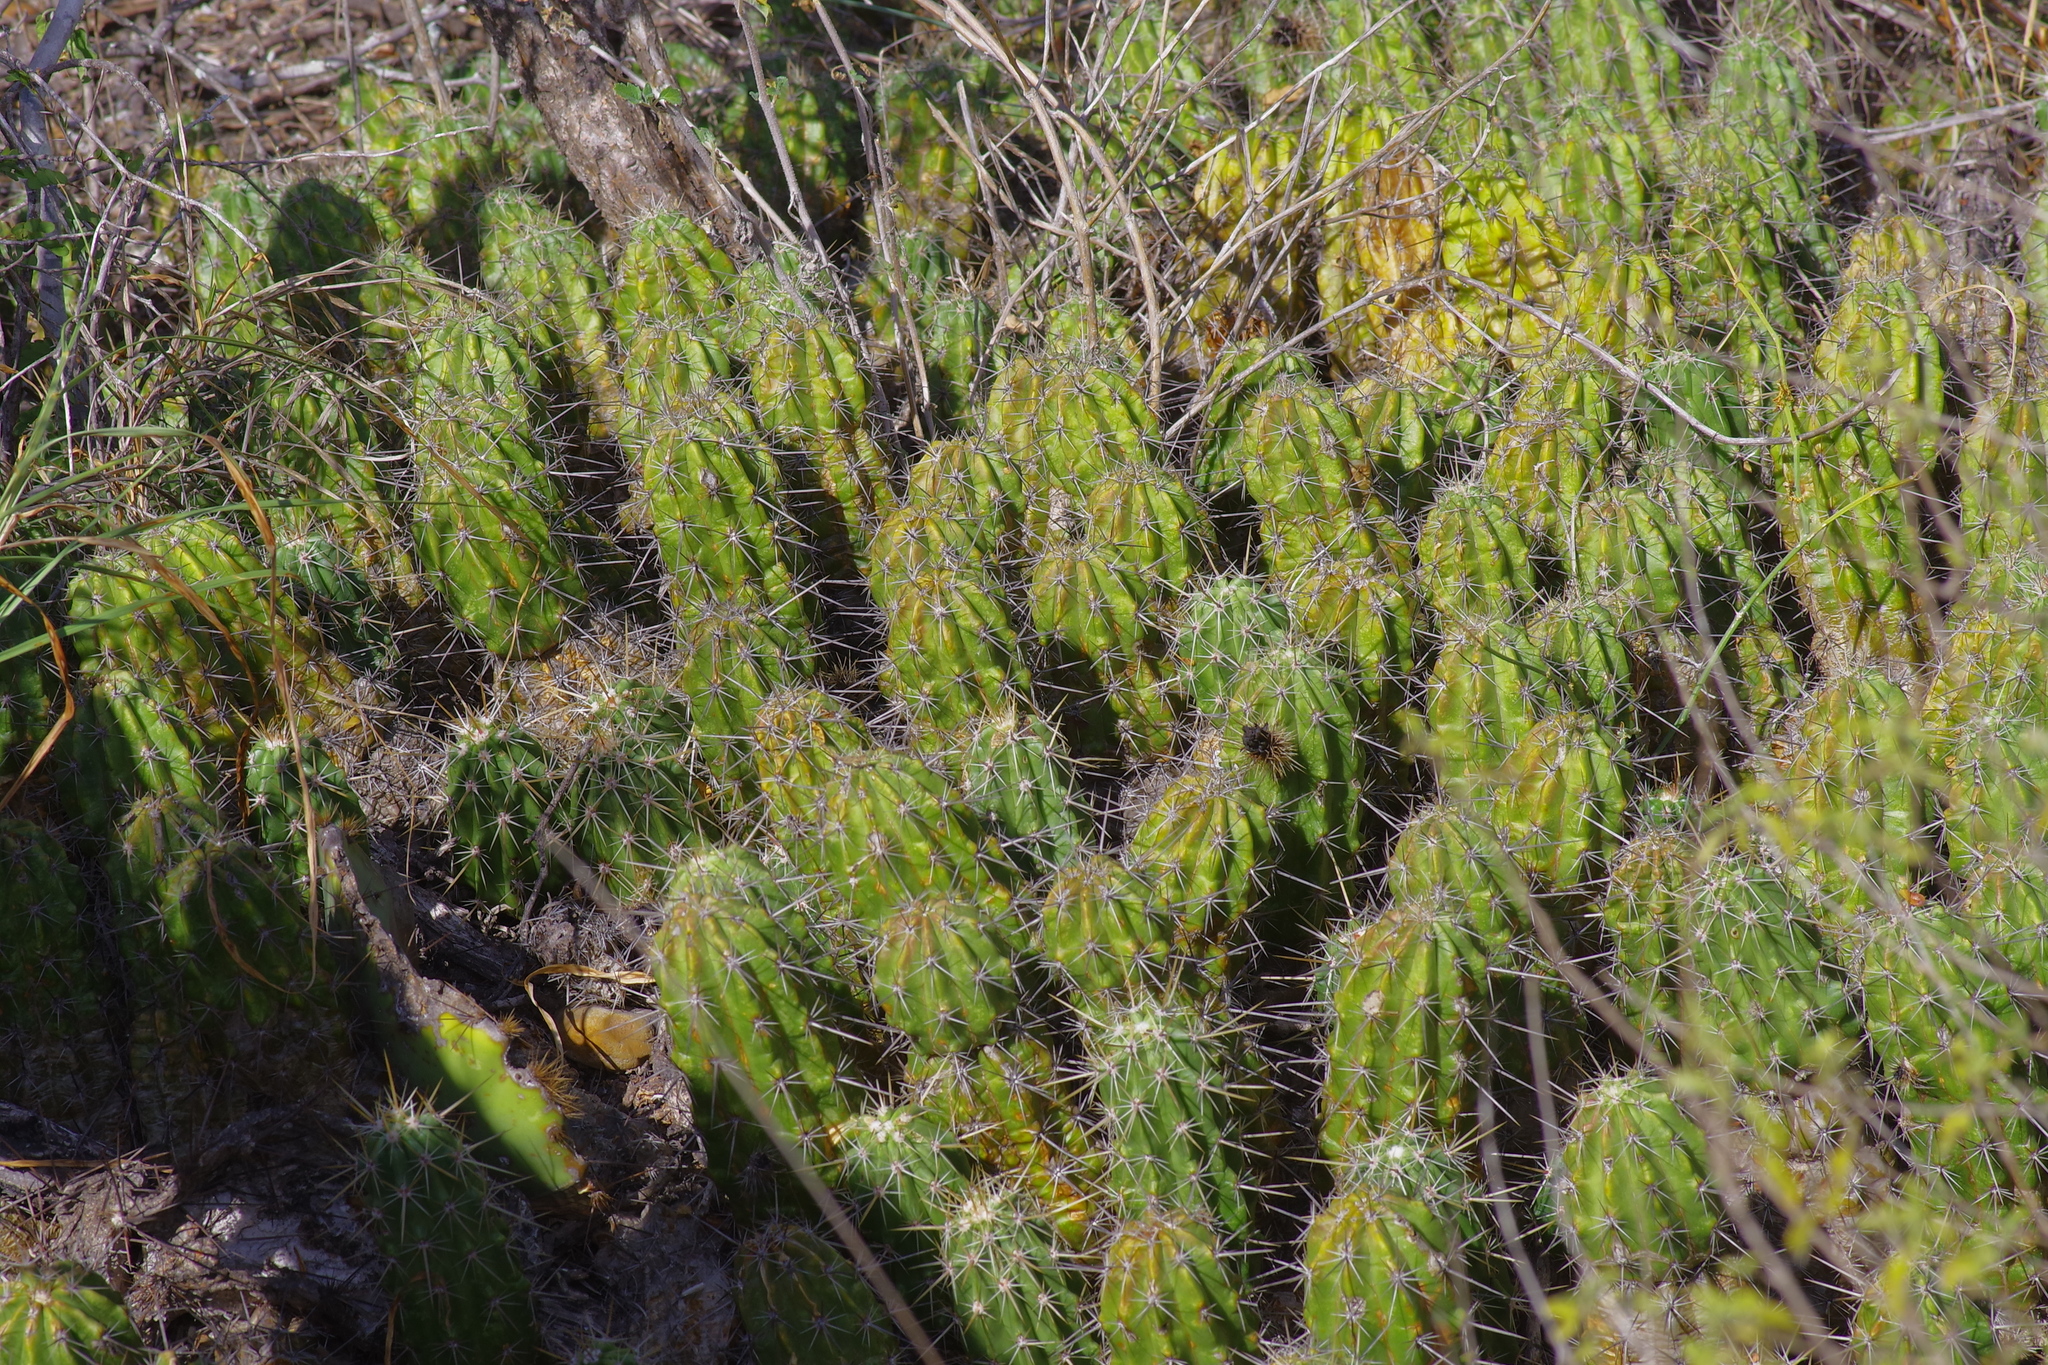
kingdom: Plantae
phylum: Tracheophyta
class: Magnoliopsida
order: Caryophyllales
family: Cactaceae
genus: Echinocereus
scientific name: Echinocereus enneacanthus
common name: Pitaya
